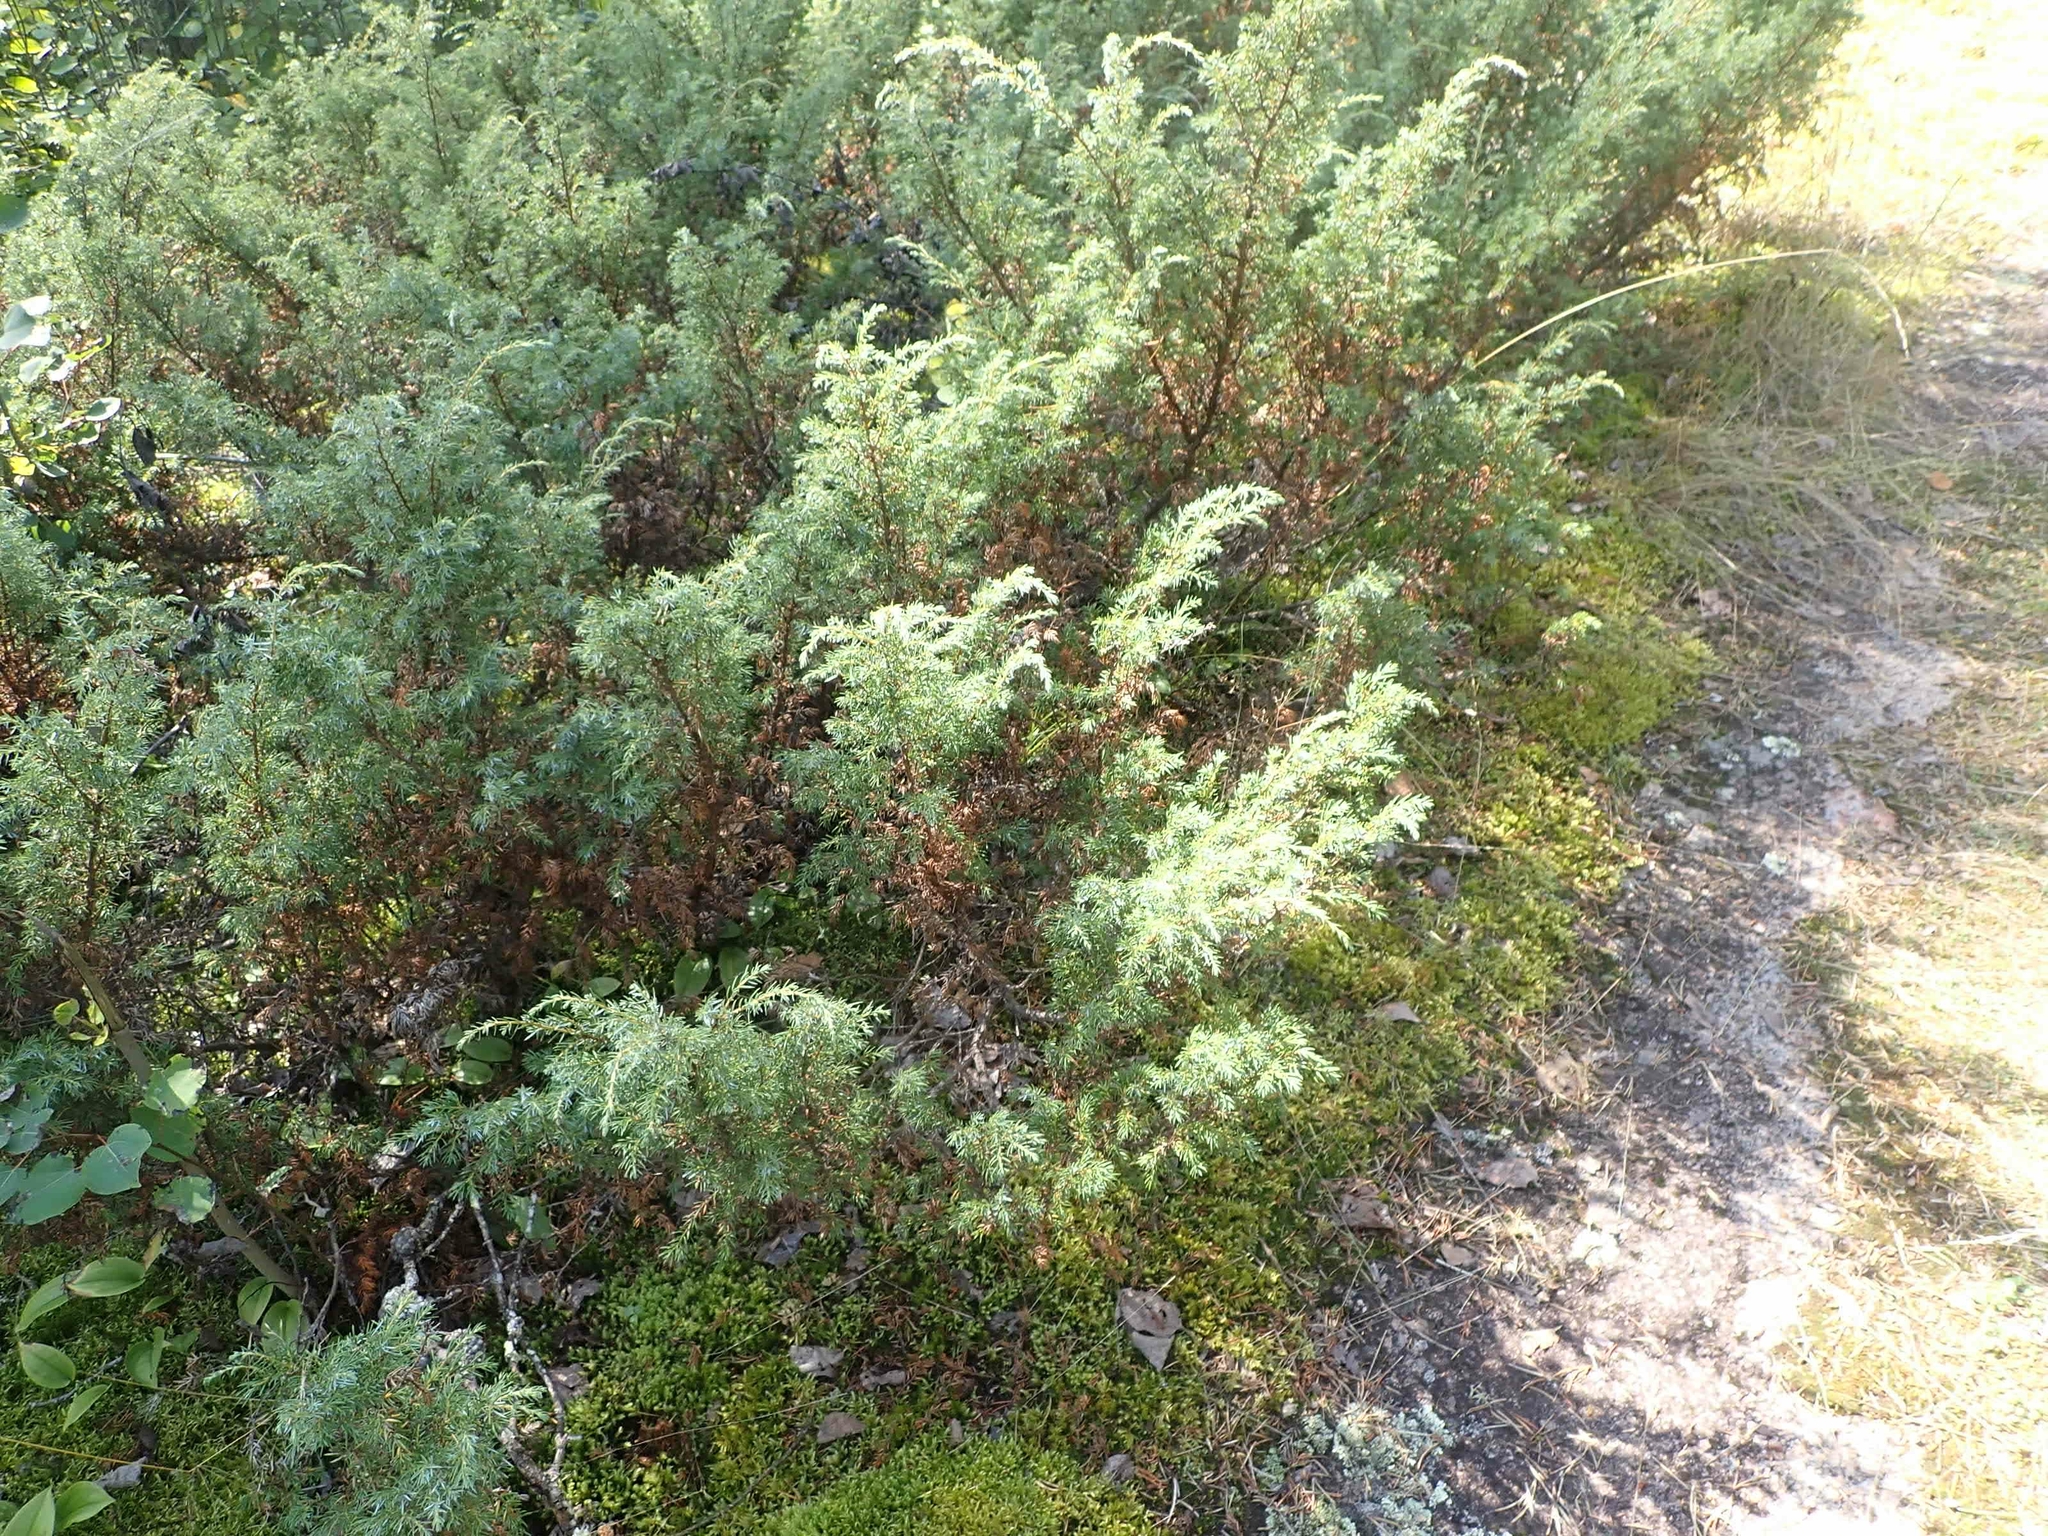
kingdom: Plantae
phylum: Tracheophyta
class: Pinopsida
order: Pinales
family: Cupressaceae
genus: Juniperus
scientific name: Juniperus communis
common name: Common juniper
